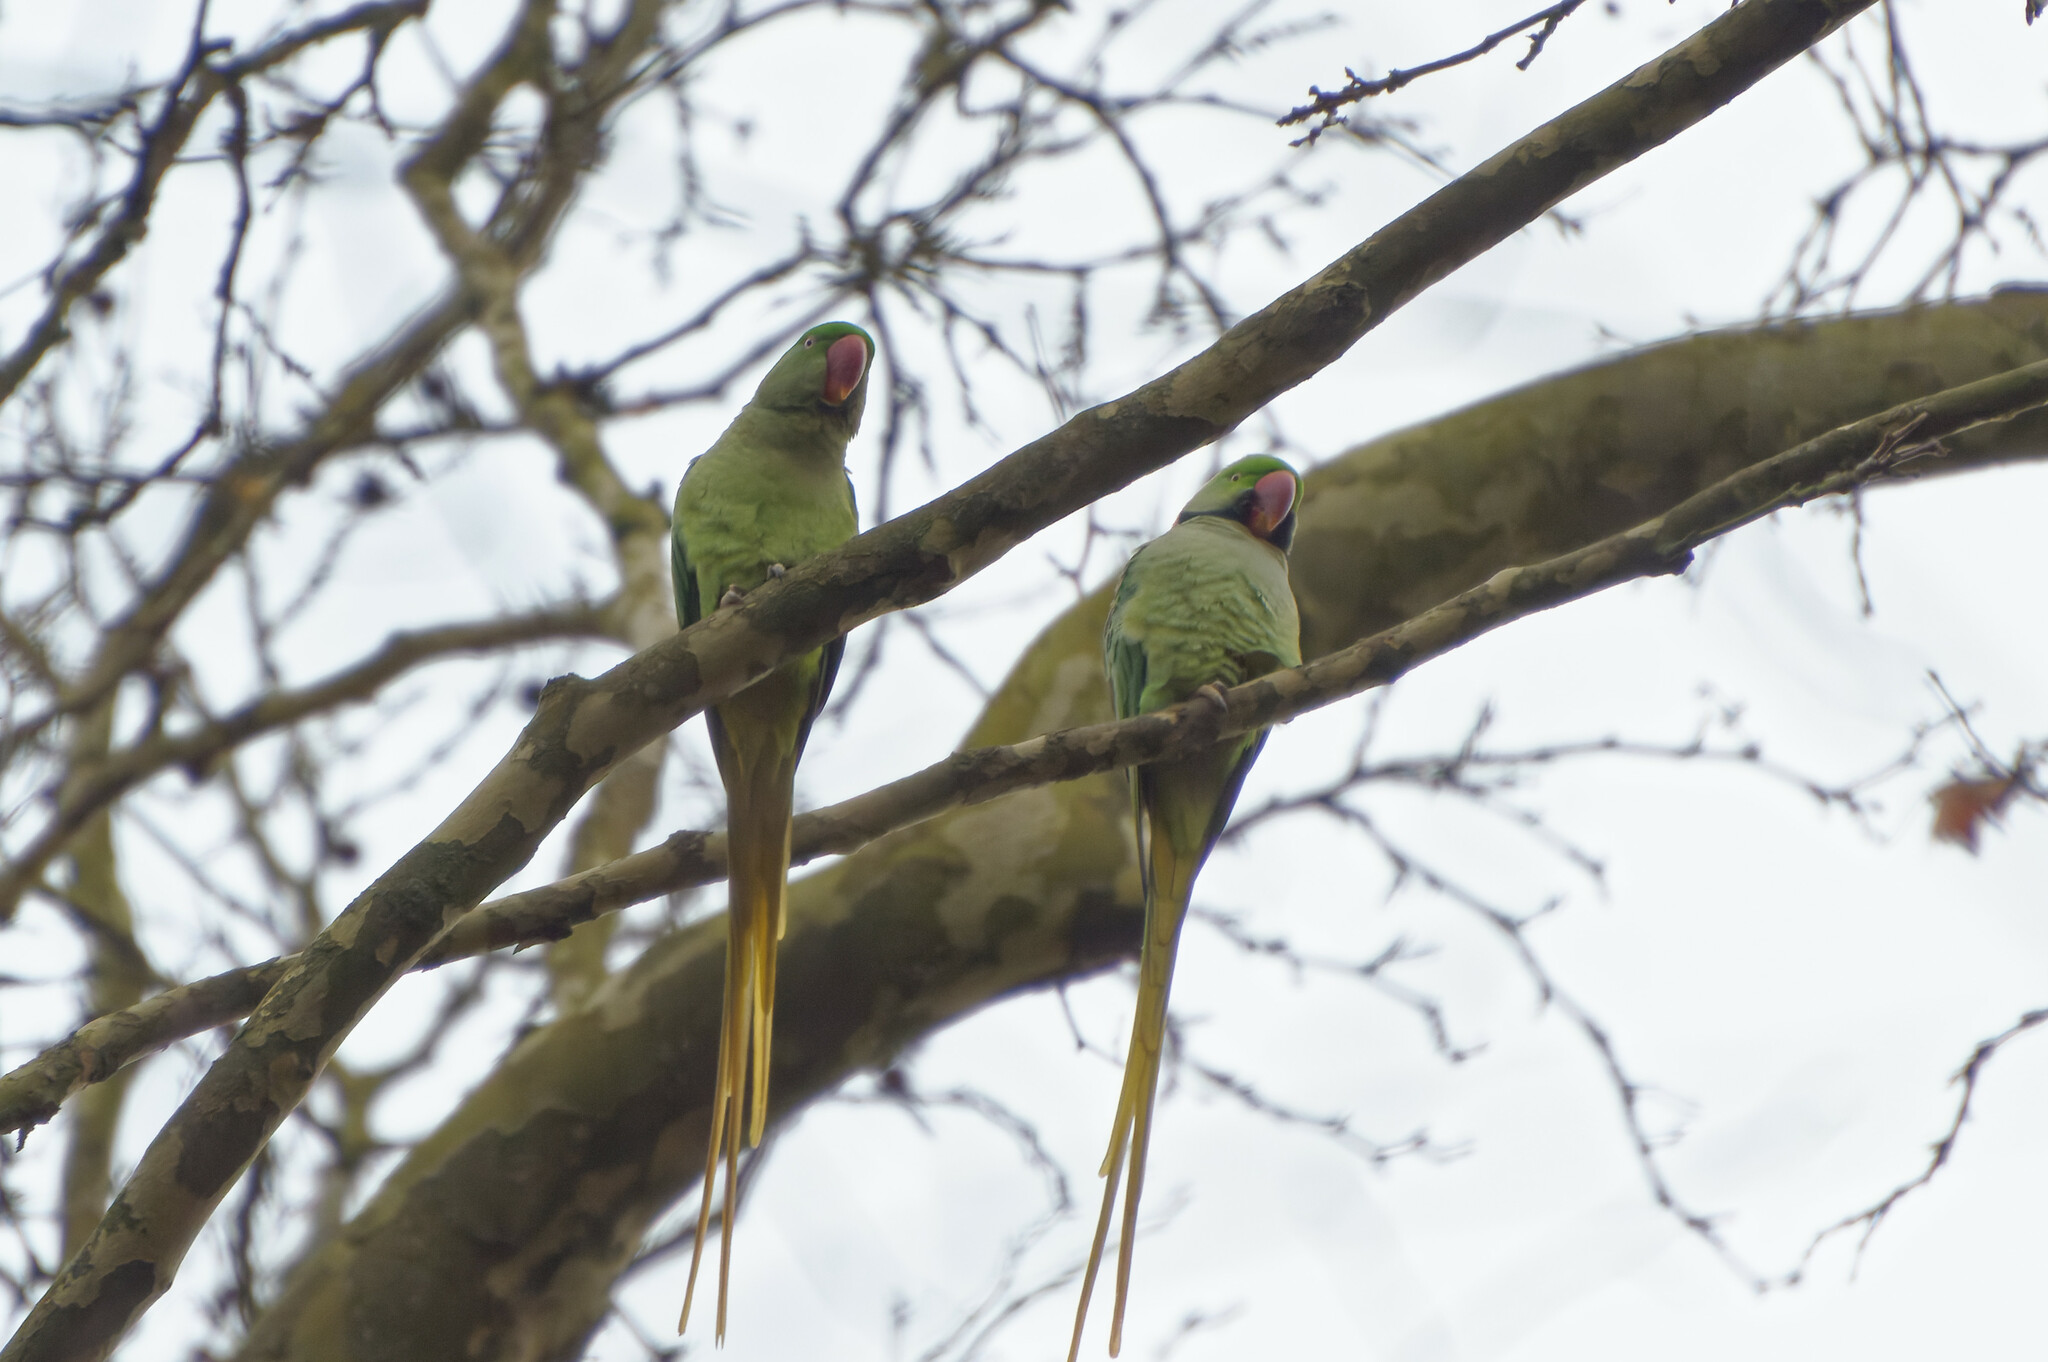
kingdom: Animalia
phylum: Chordata
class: Aves
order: Psittaciformes
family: Psittacidae
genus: Psittacula
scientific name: Psittacula eupatria
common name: Alexandrine parakeet
